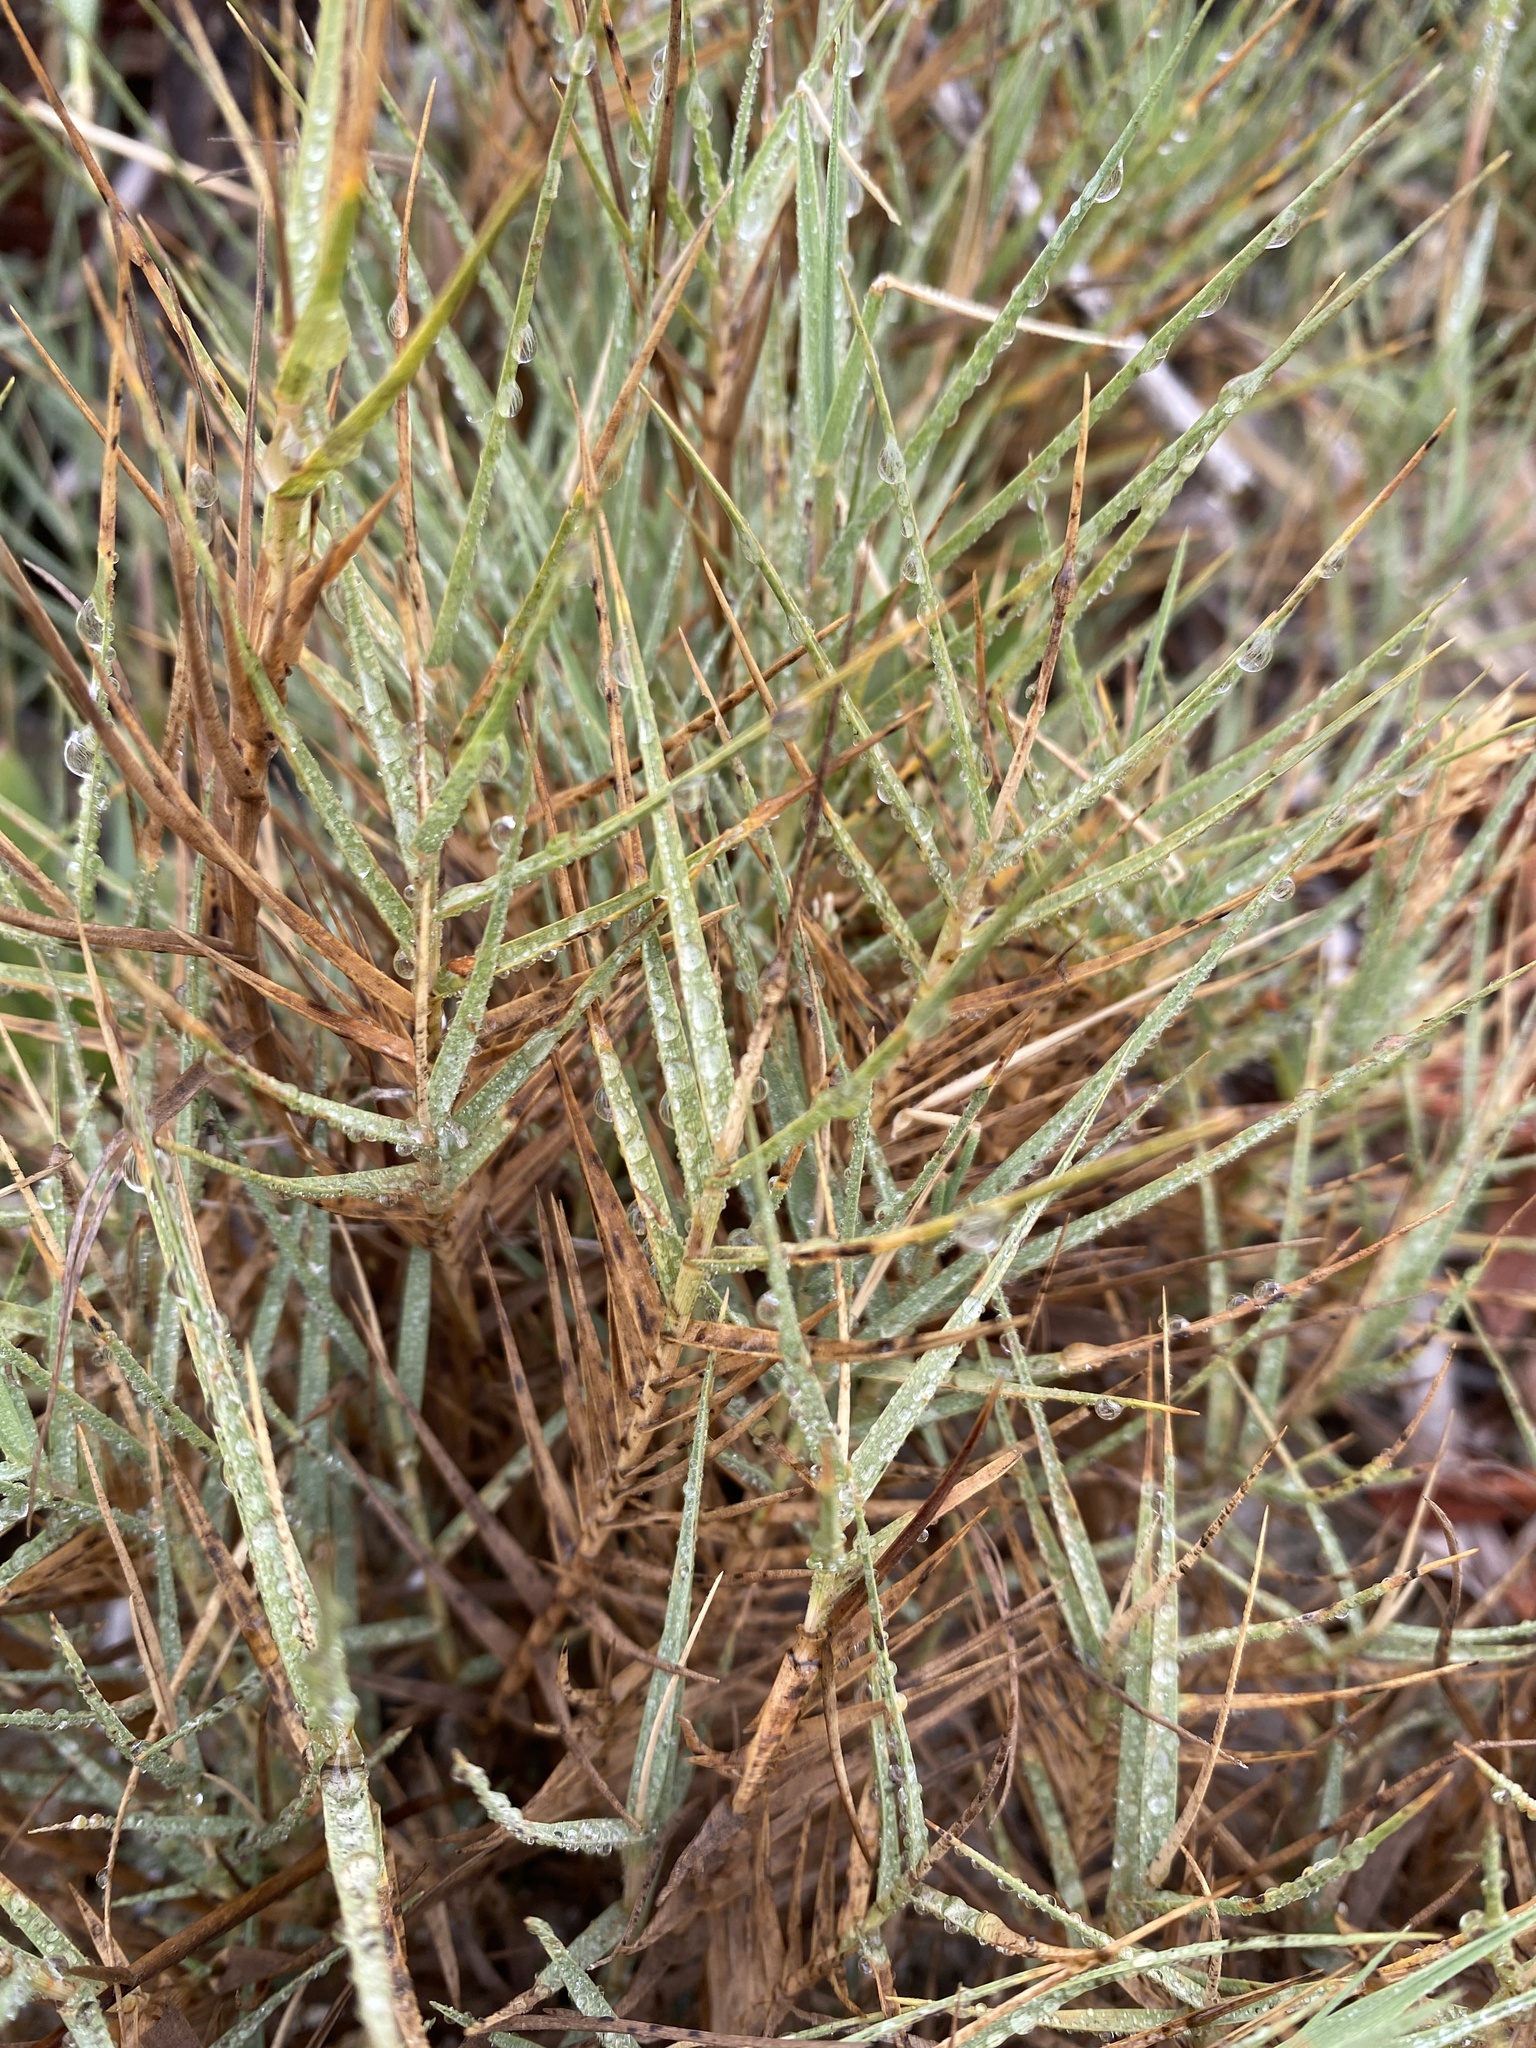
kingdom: Plantae
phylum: Tracheophyta
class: Liliopsida
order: Poales
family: Poaceae
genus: Distichlis
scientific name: Distichlis spicata
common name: Saltgrass
